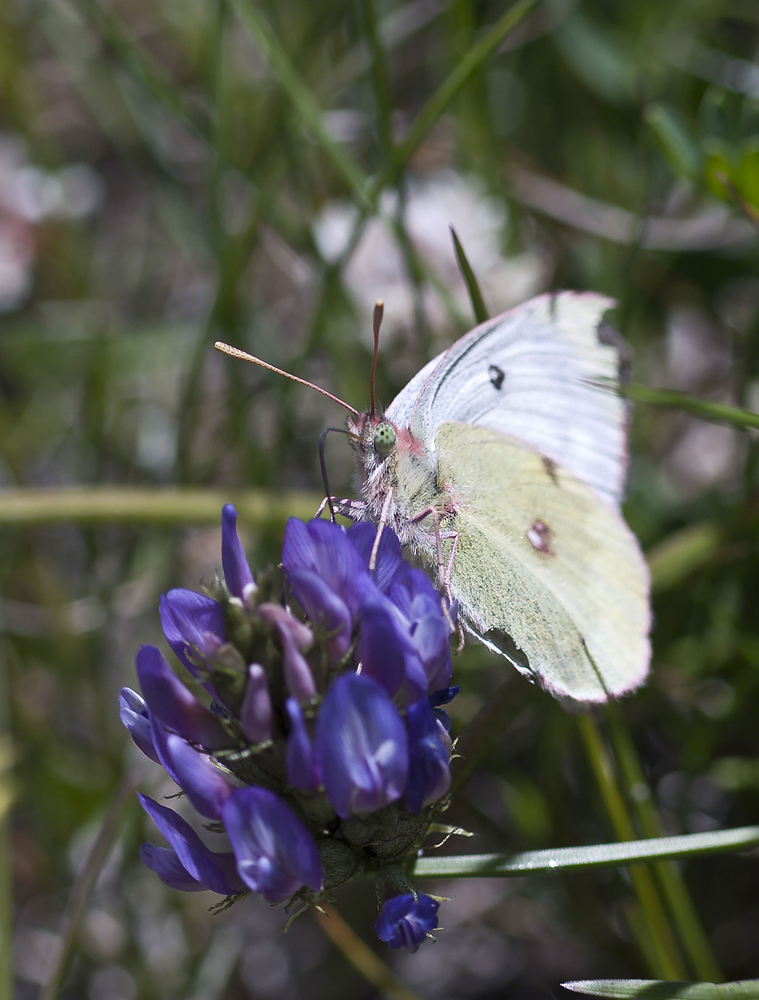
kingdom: Animalia
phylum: Arthropoda
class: Insecta
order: Lepidoptera
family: Pieridae
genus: Colias
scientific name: Colias phicomone
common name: Mountain clouded yellow
